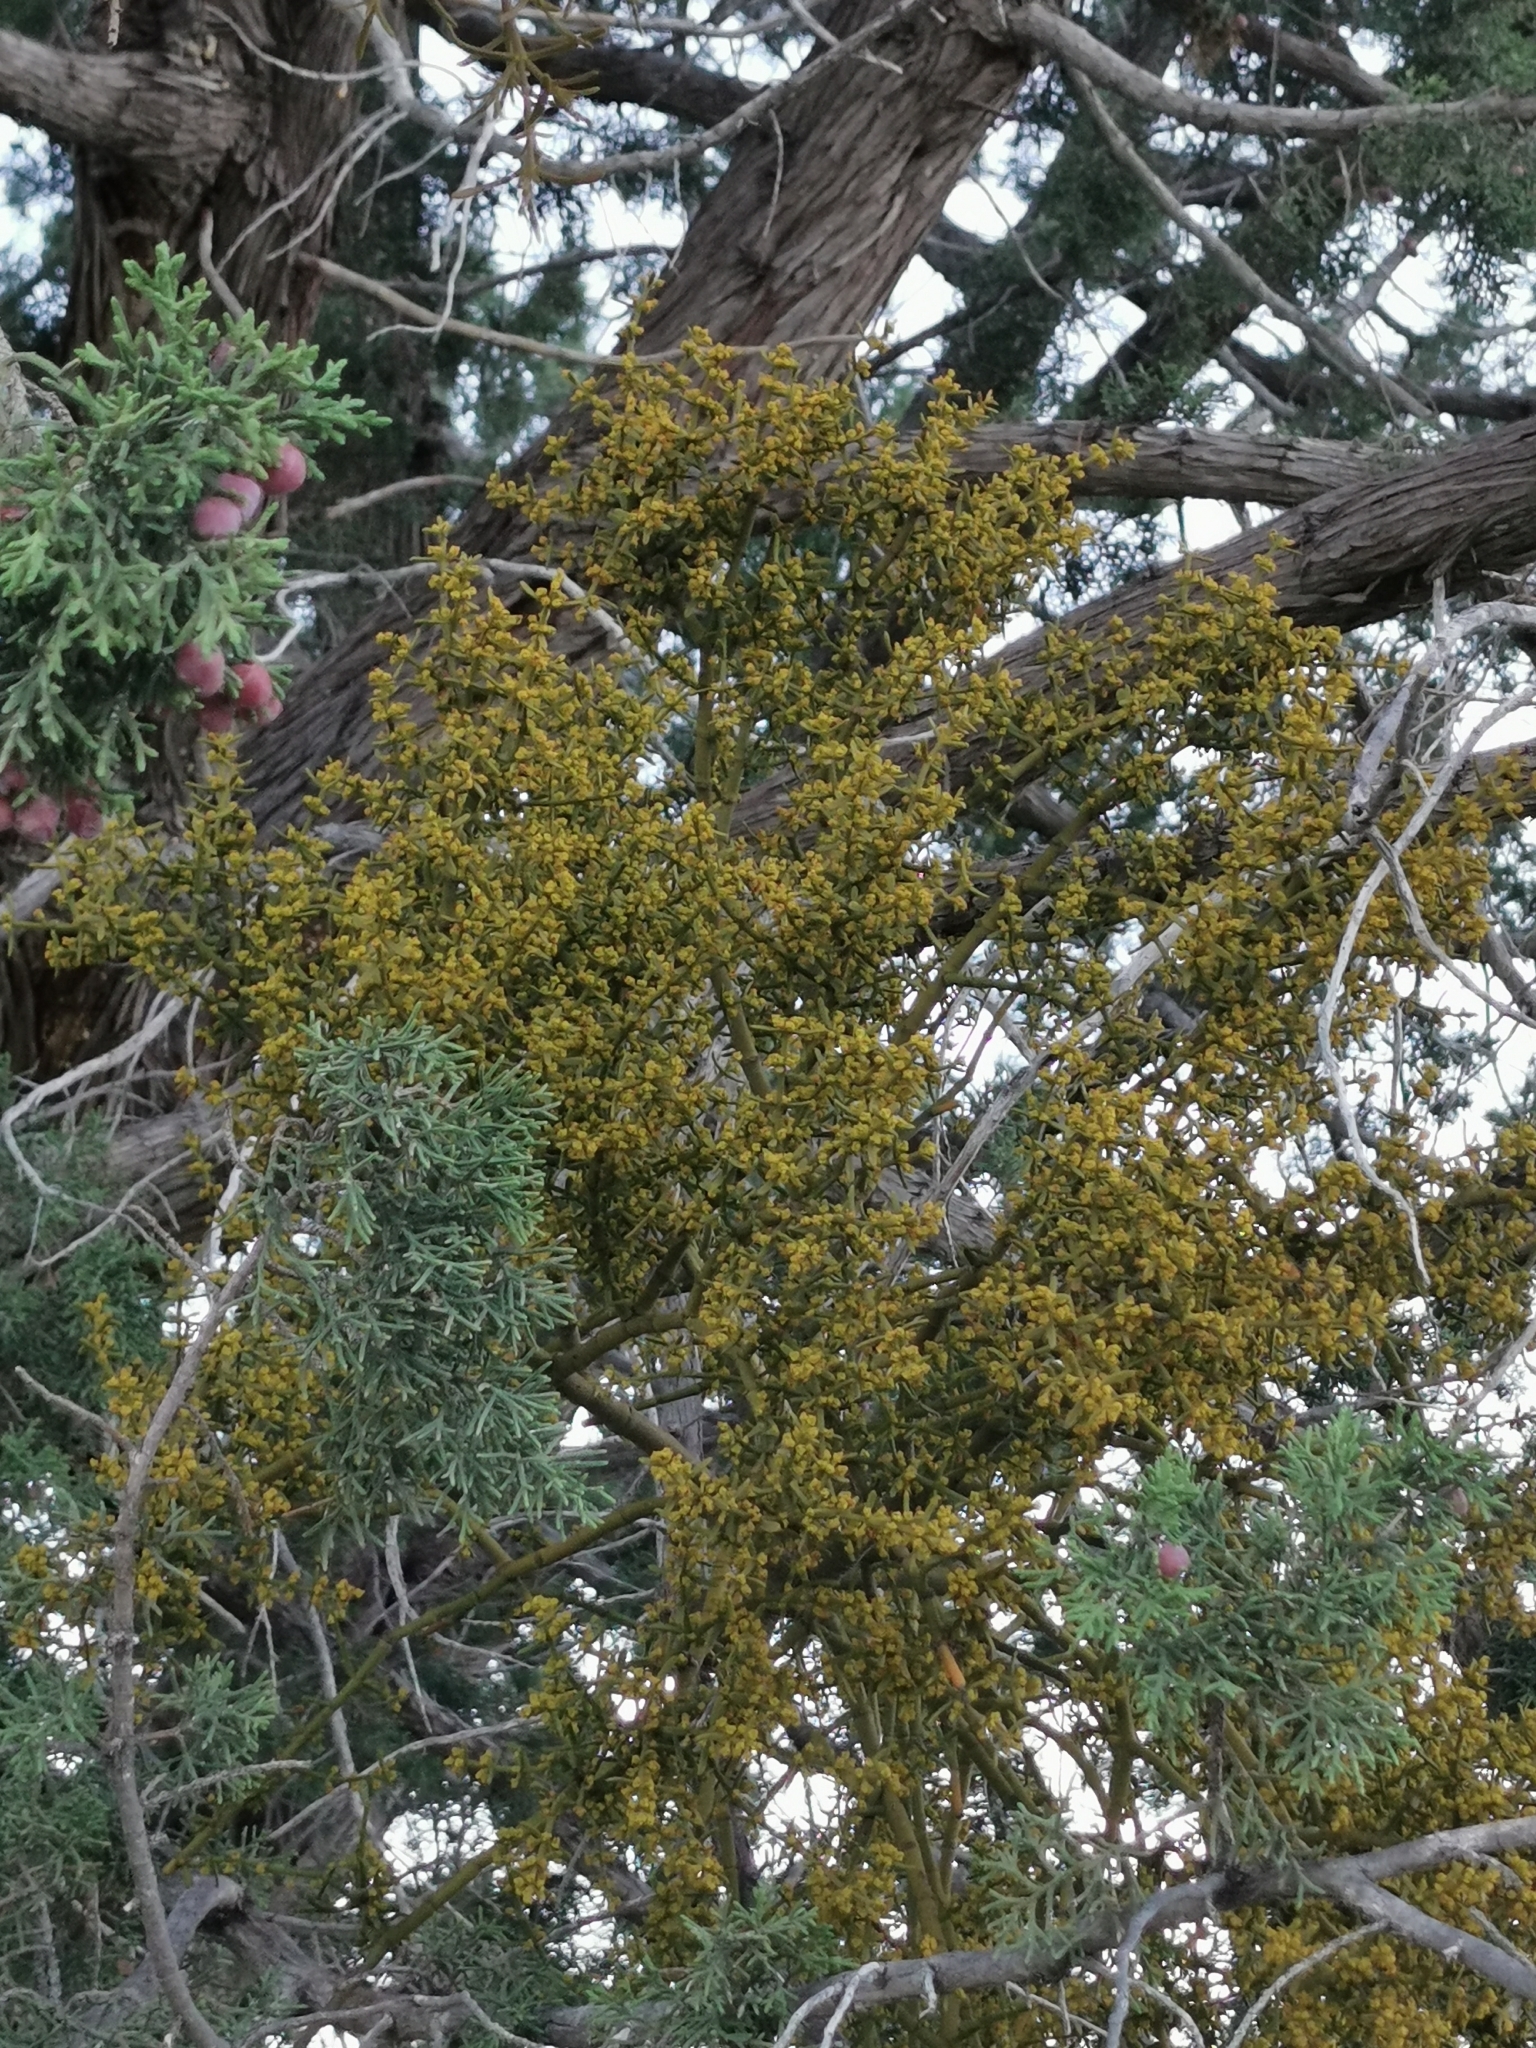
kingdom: Plantae
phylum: Tracheophyta
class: Magnoliopsida
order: Santalales
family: Viscaceae
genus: Phoradendron
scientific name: Phoradendron bolleanum
